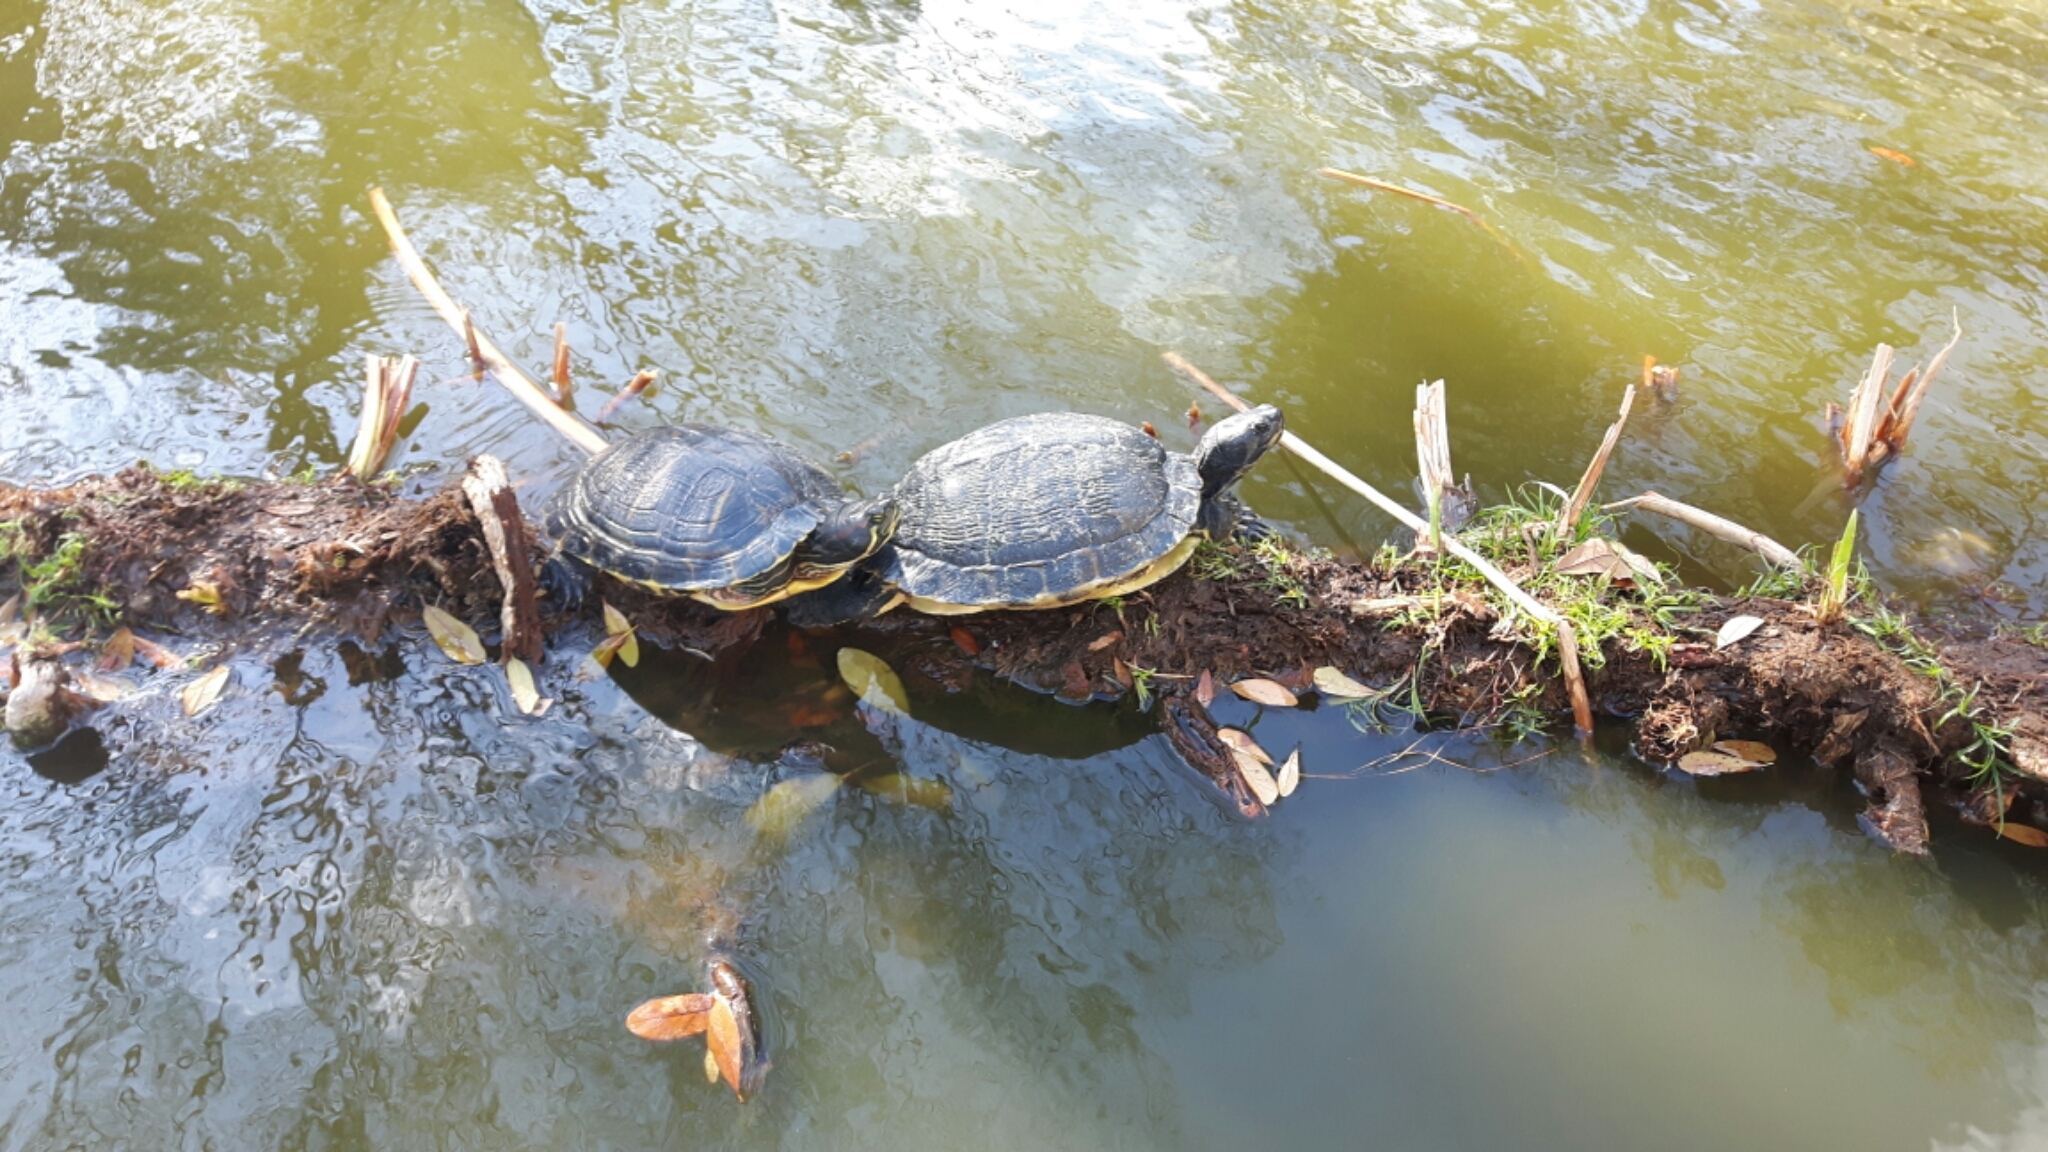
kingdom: Animalia
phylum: Chordata
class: Testudines
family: Emydidae
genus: Trachemys
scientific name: Trachemys scripta
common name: Slider
